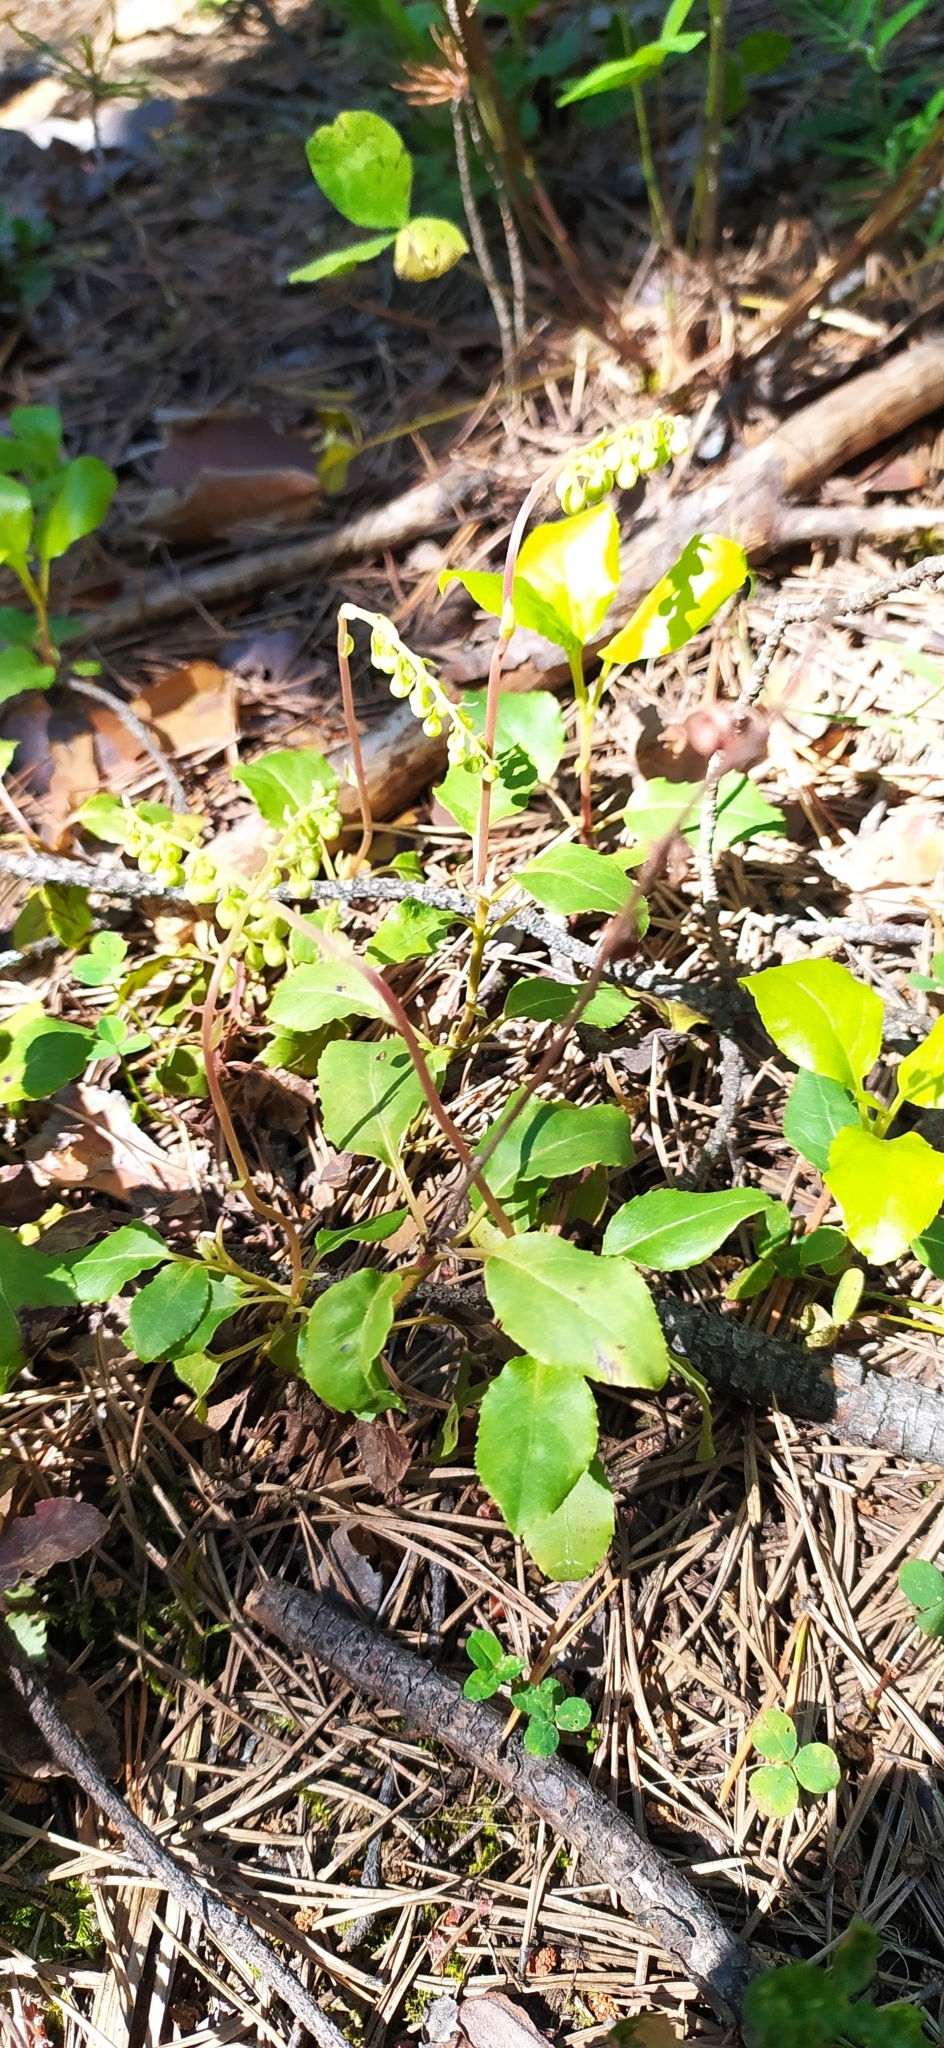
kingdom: Plantae
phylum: Tracheophyta
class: Magnoliopsida
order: Ericales
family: Ericaceae
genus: Orthilia
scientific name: Orthilia secunda
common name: One-sided orthilia
